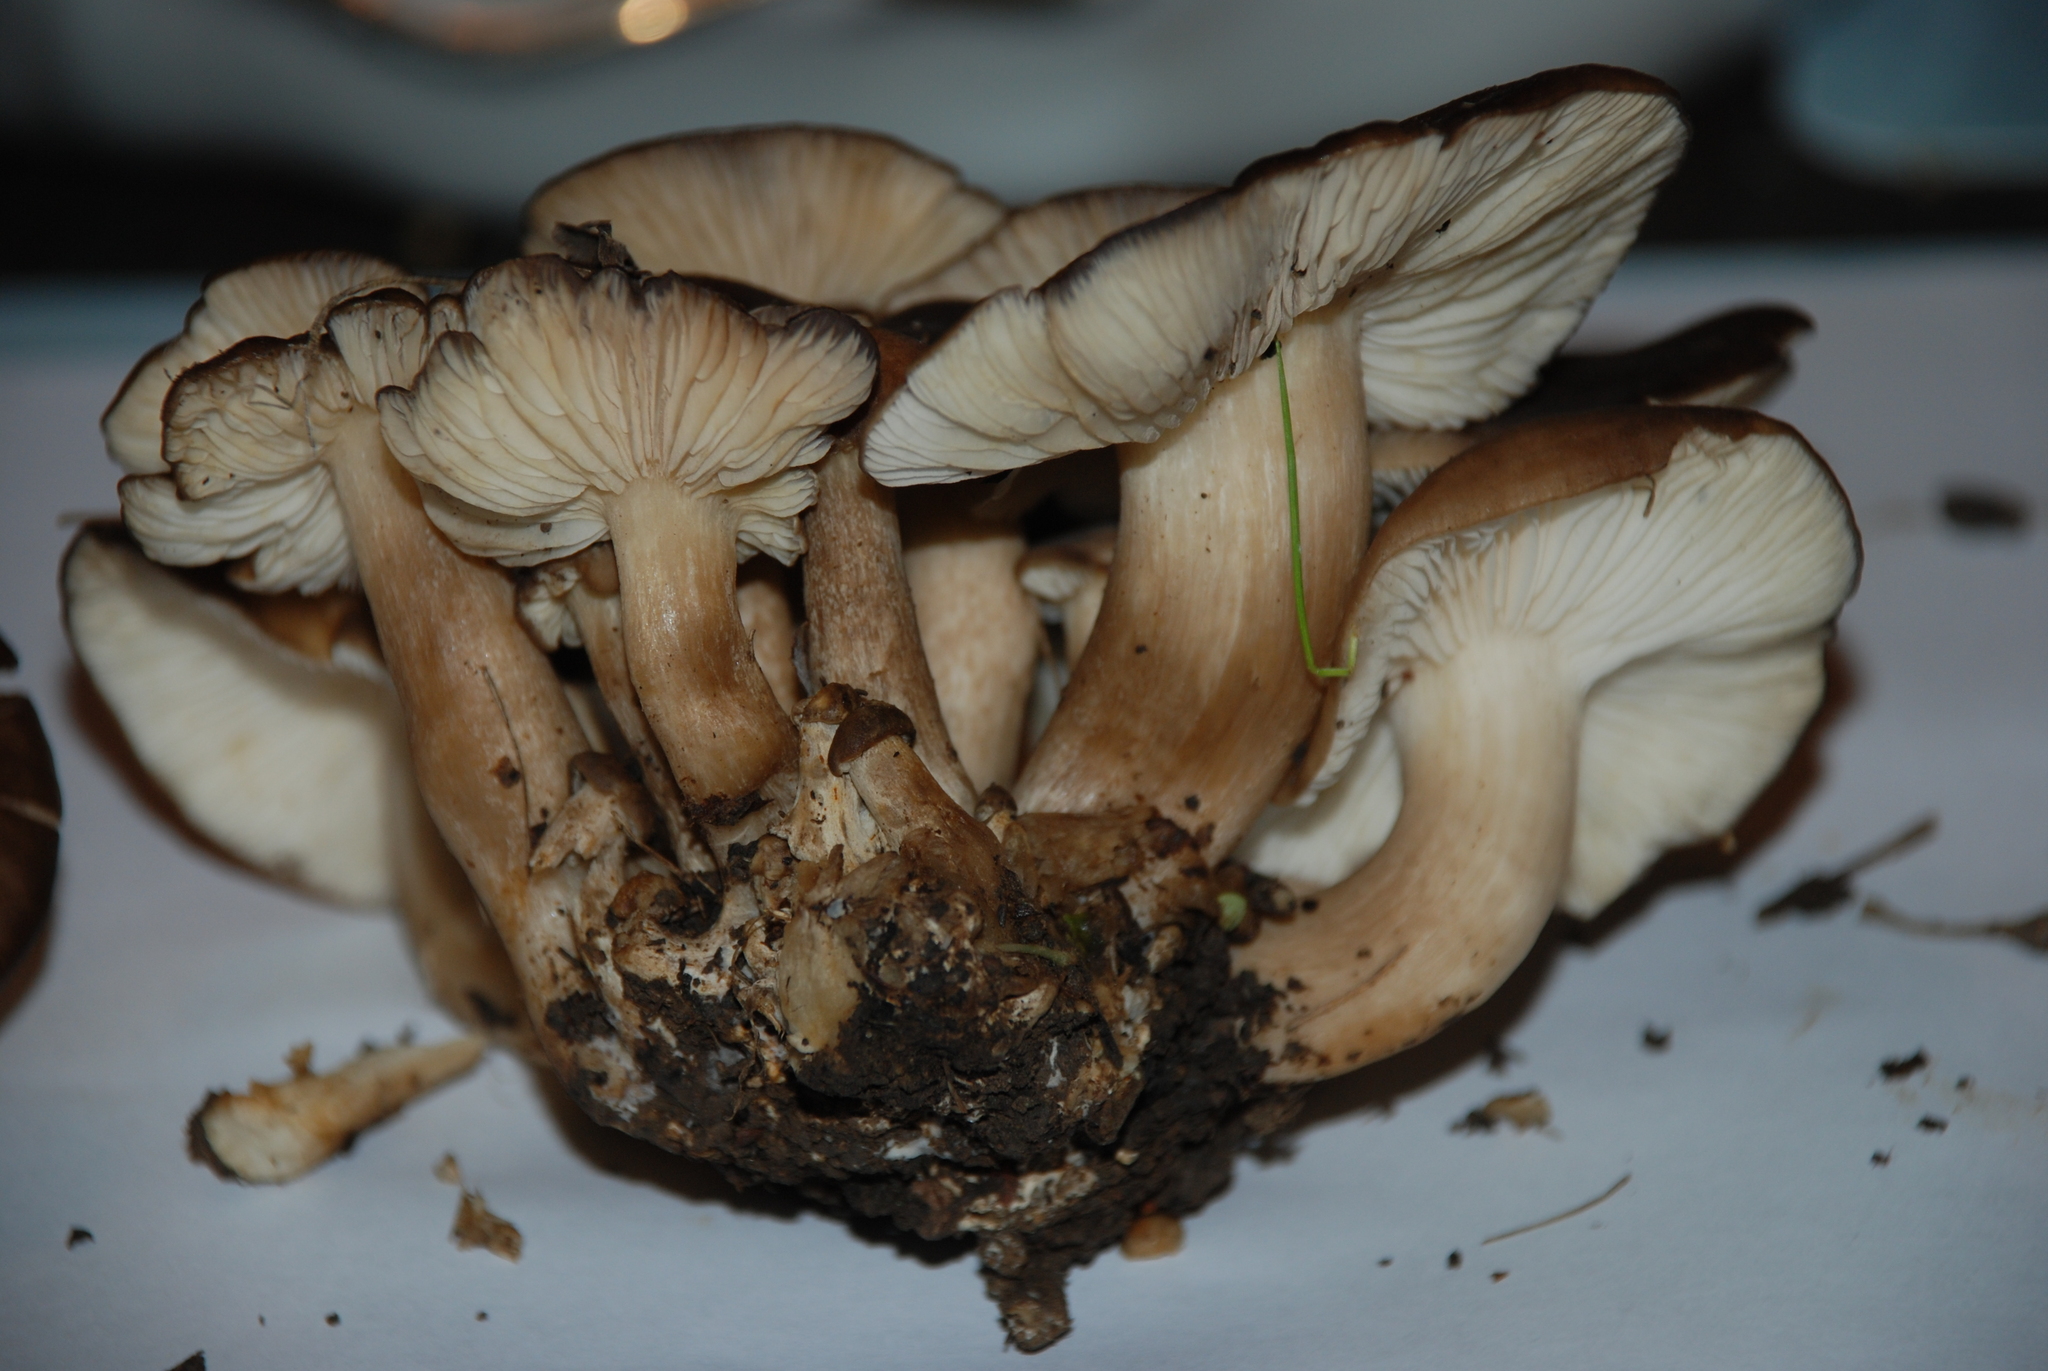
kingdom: Fungi
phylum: Basidiomycota
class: Agaricomycetes
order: Agaricales
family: Lyophyllaceae
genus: Lyophyllum
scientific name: Lyophyllum decastes
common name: Clustered domecap
